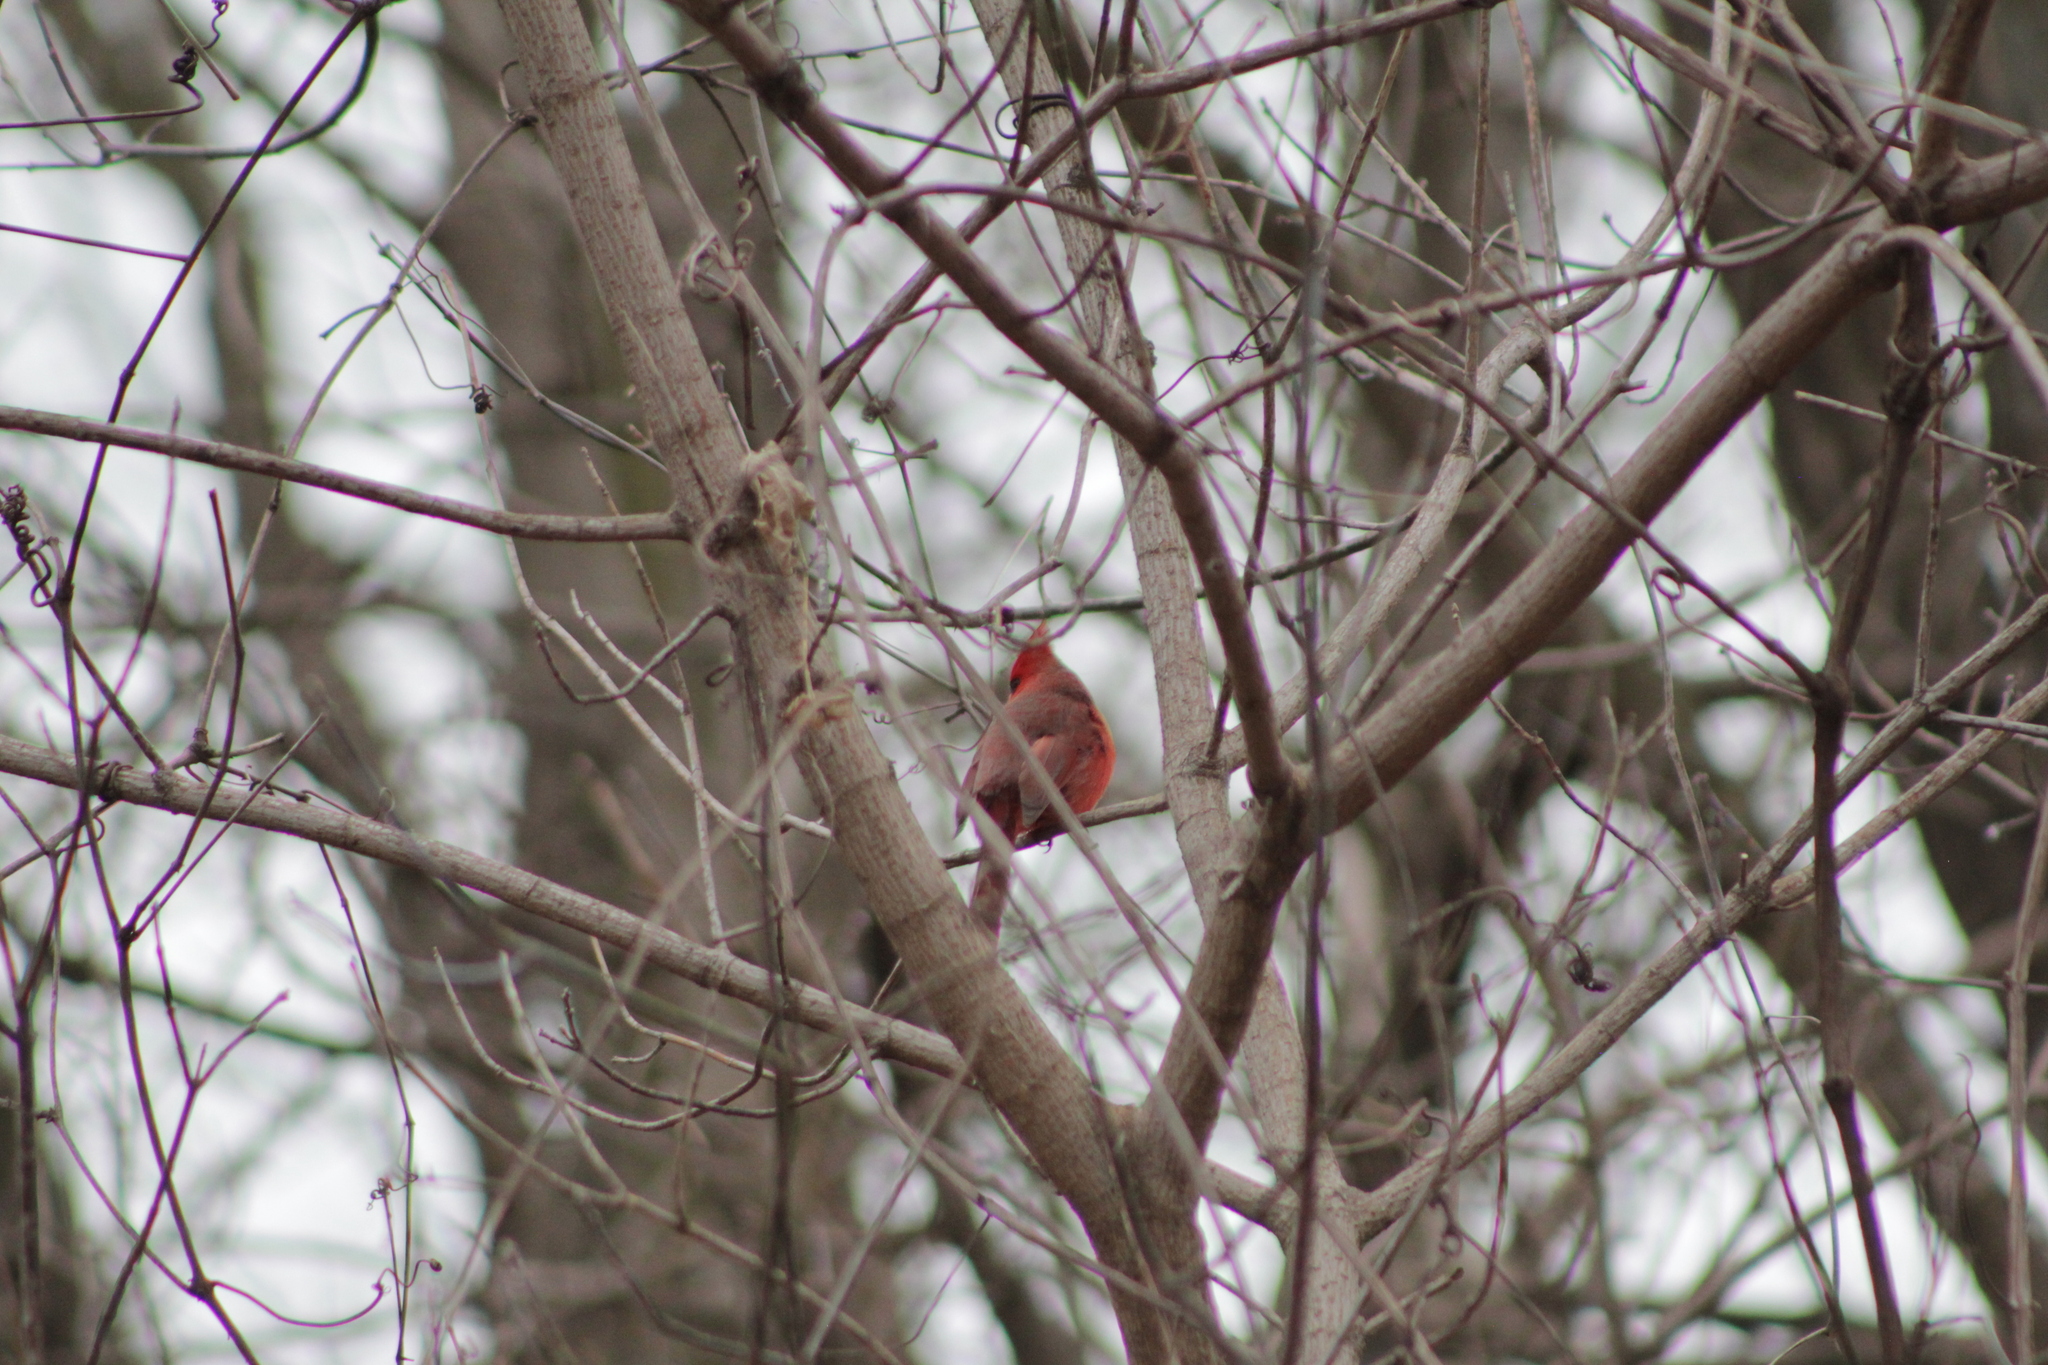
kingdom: Animalia
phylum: Chordata
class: Aves
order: Passeriformes
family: Cardinalidae
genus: Cardinalis
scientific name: Cardinalis cardinalis
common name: Northern cardinal
